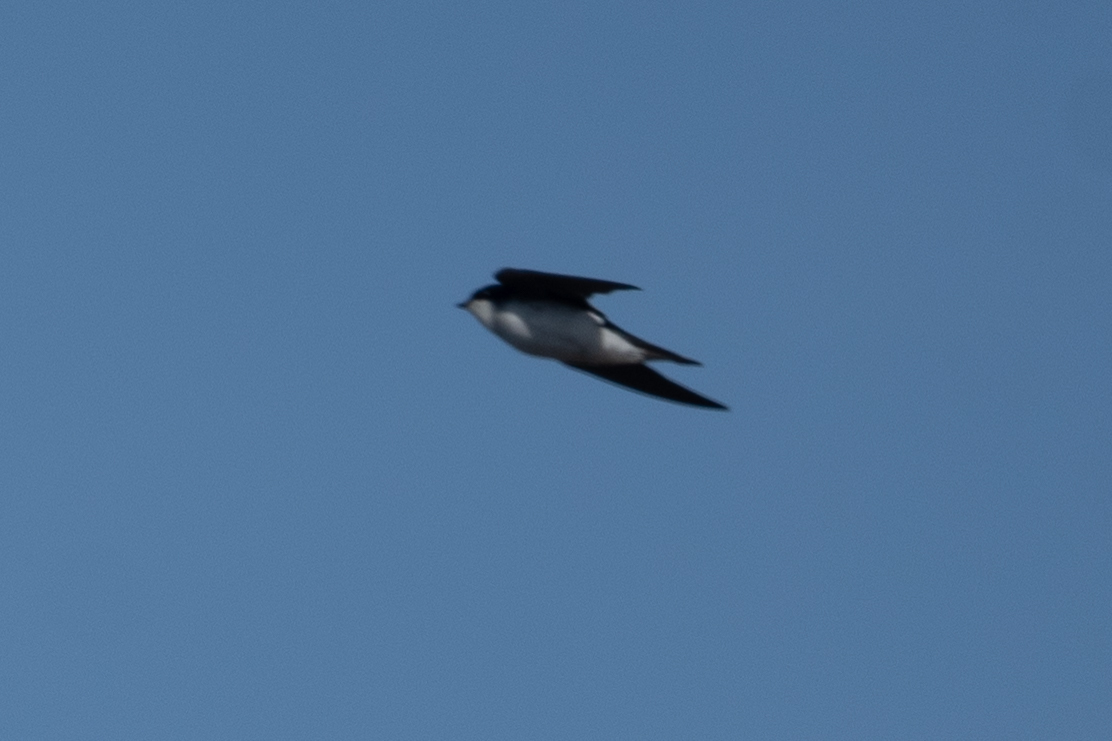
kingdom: Animalia
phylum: Chordata
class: Aves
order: Passeriformes
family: Hirundinidae
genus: Tachycineta
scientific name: Tachycineta bicolor
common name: Tree swallow
